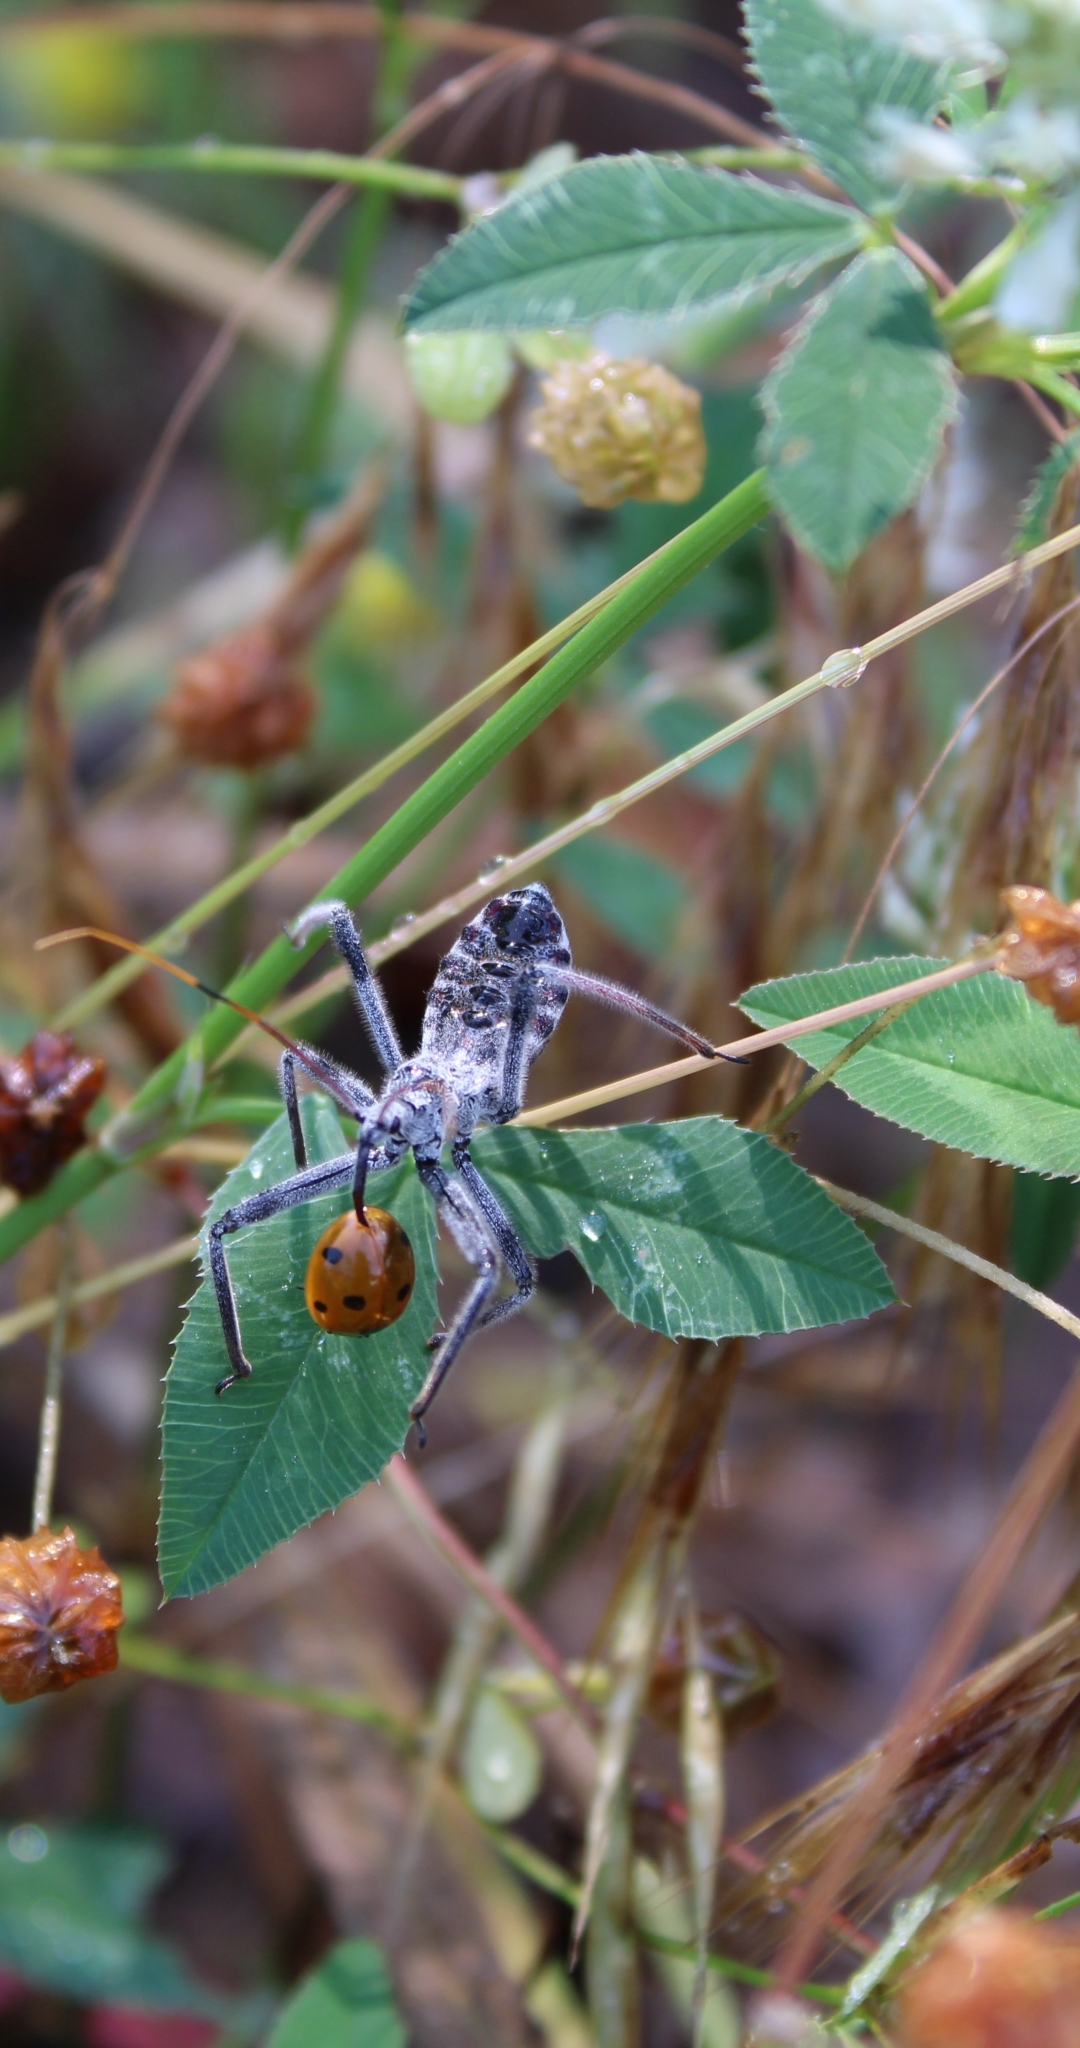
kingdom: Animalia
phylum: Arthropoda
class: Insecta
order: Hemiptera
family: Reduviidae
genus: Arilus
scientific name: Arilus cristatus
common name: North american wheel bug
